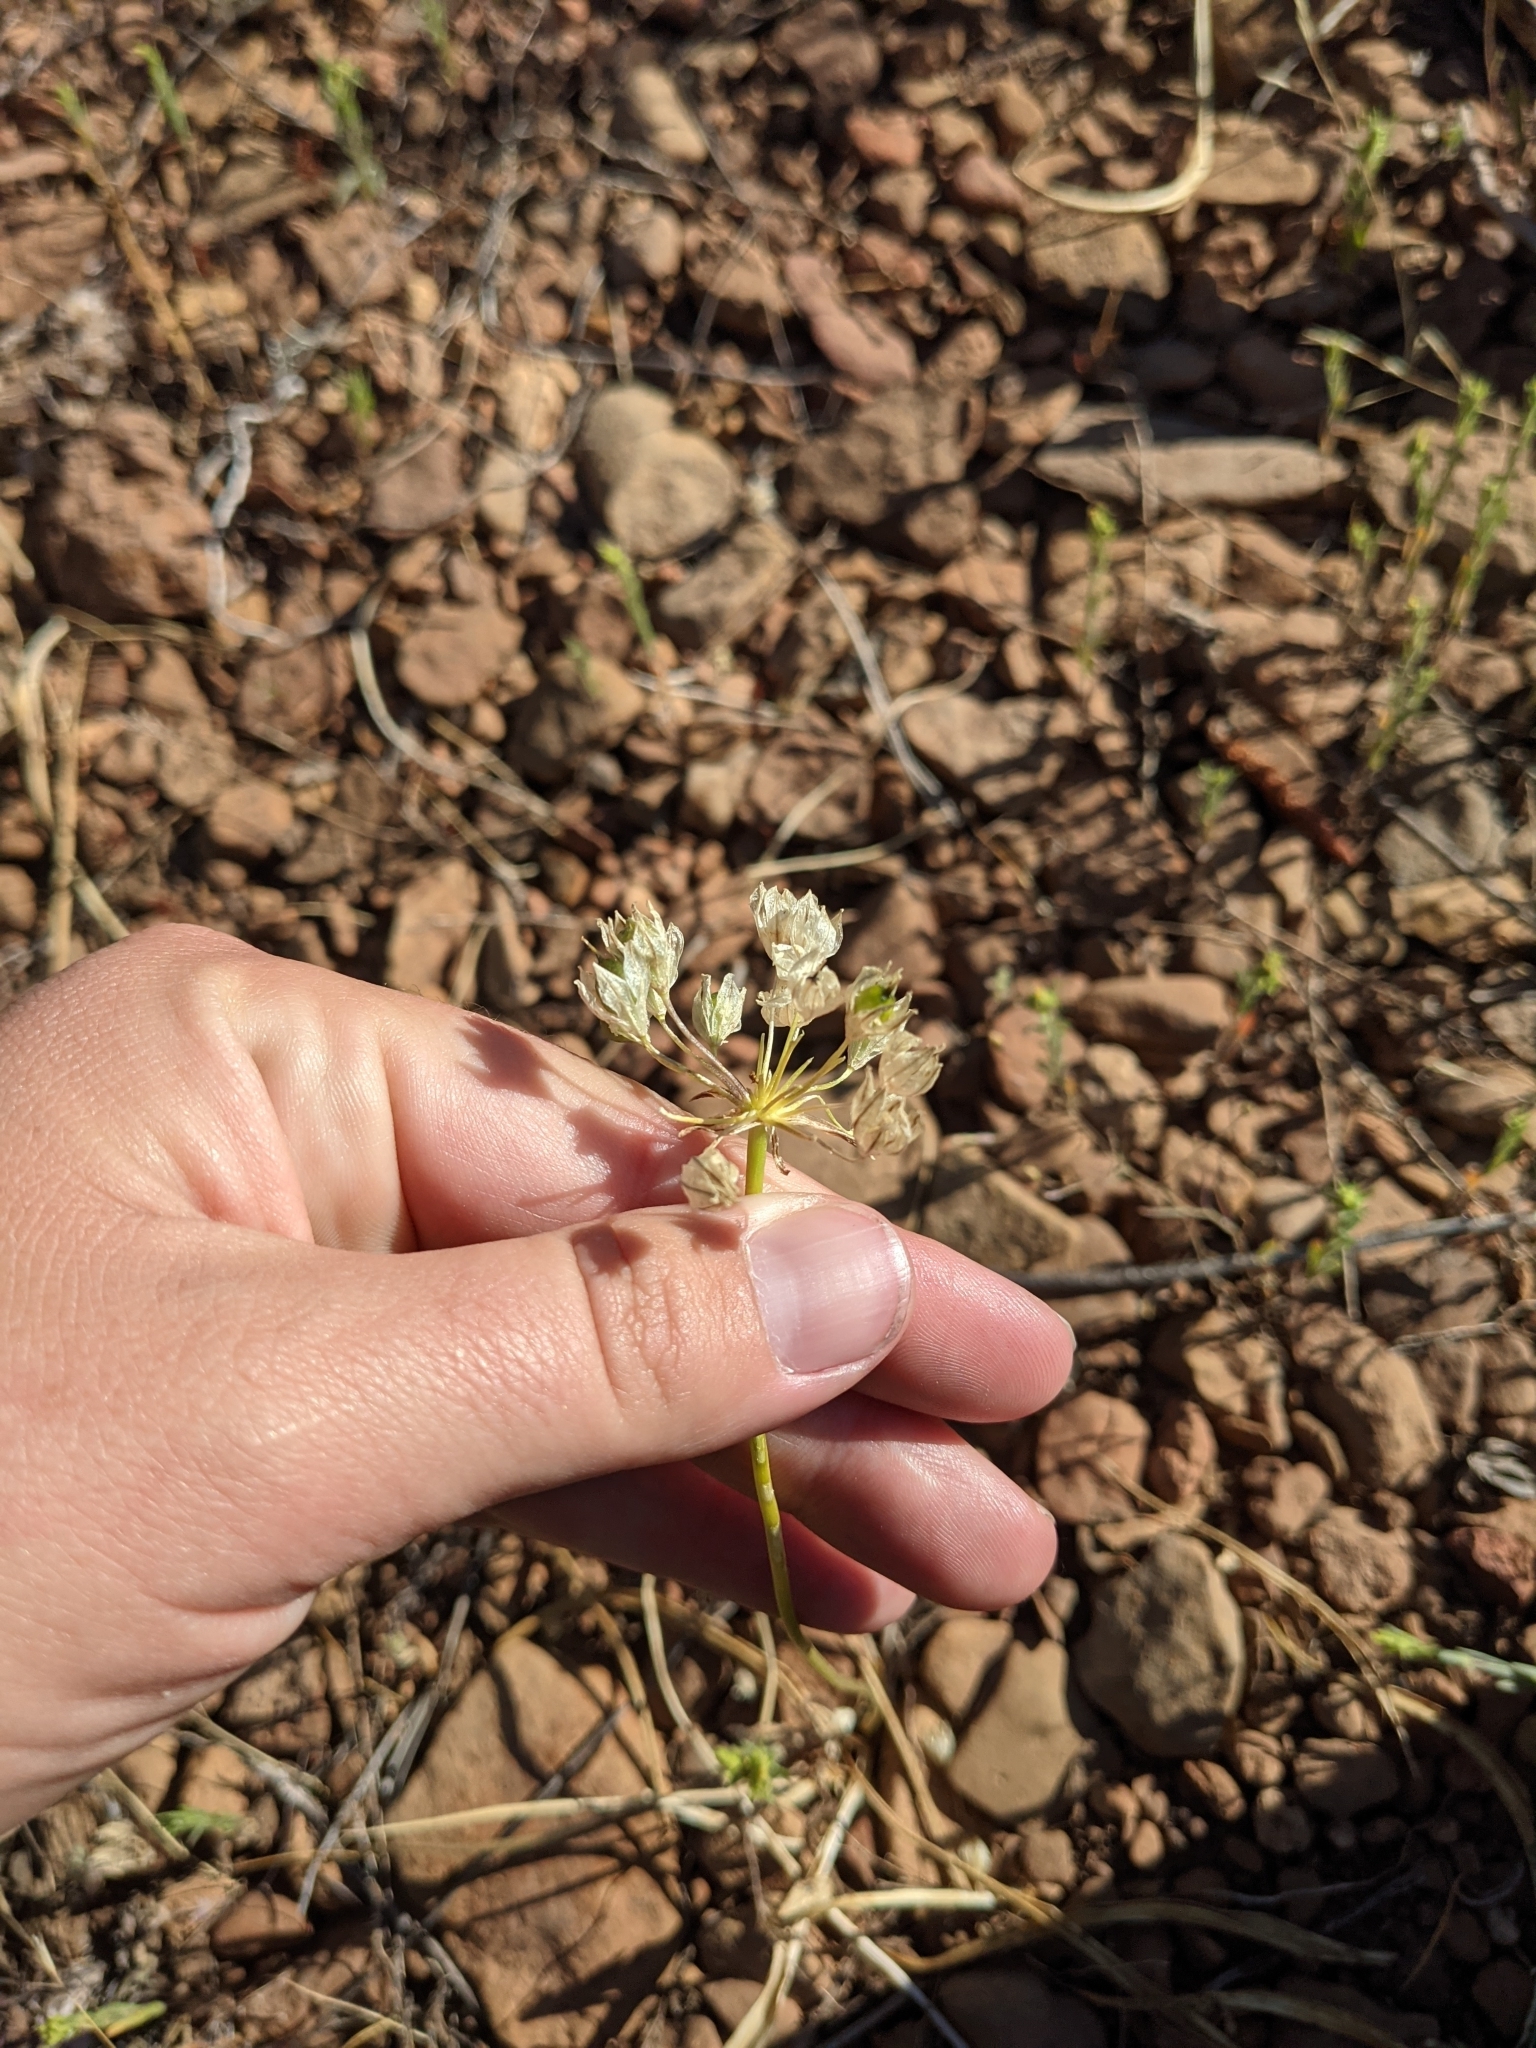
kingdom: Plantae
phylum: Tracheophyta
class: Liliopsida
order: Asparagales
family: Asparagaceae
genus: Triteleia
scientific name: Triteleia hyacinthina
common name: White brodiaea
